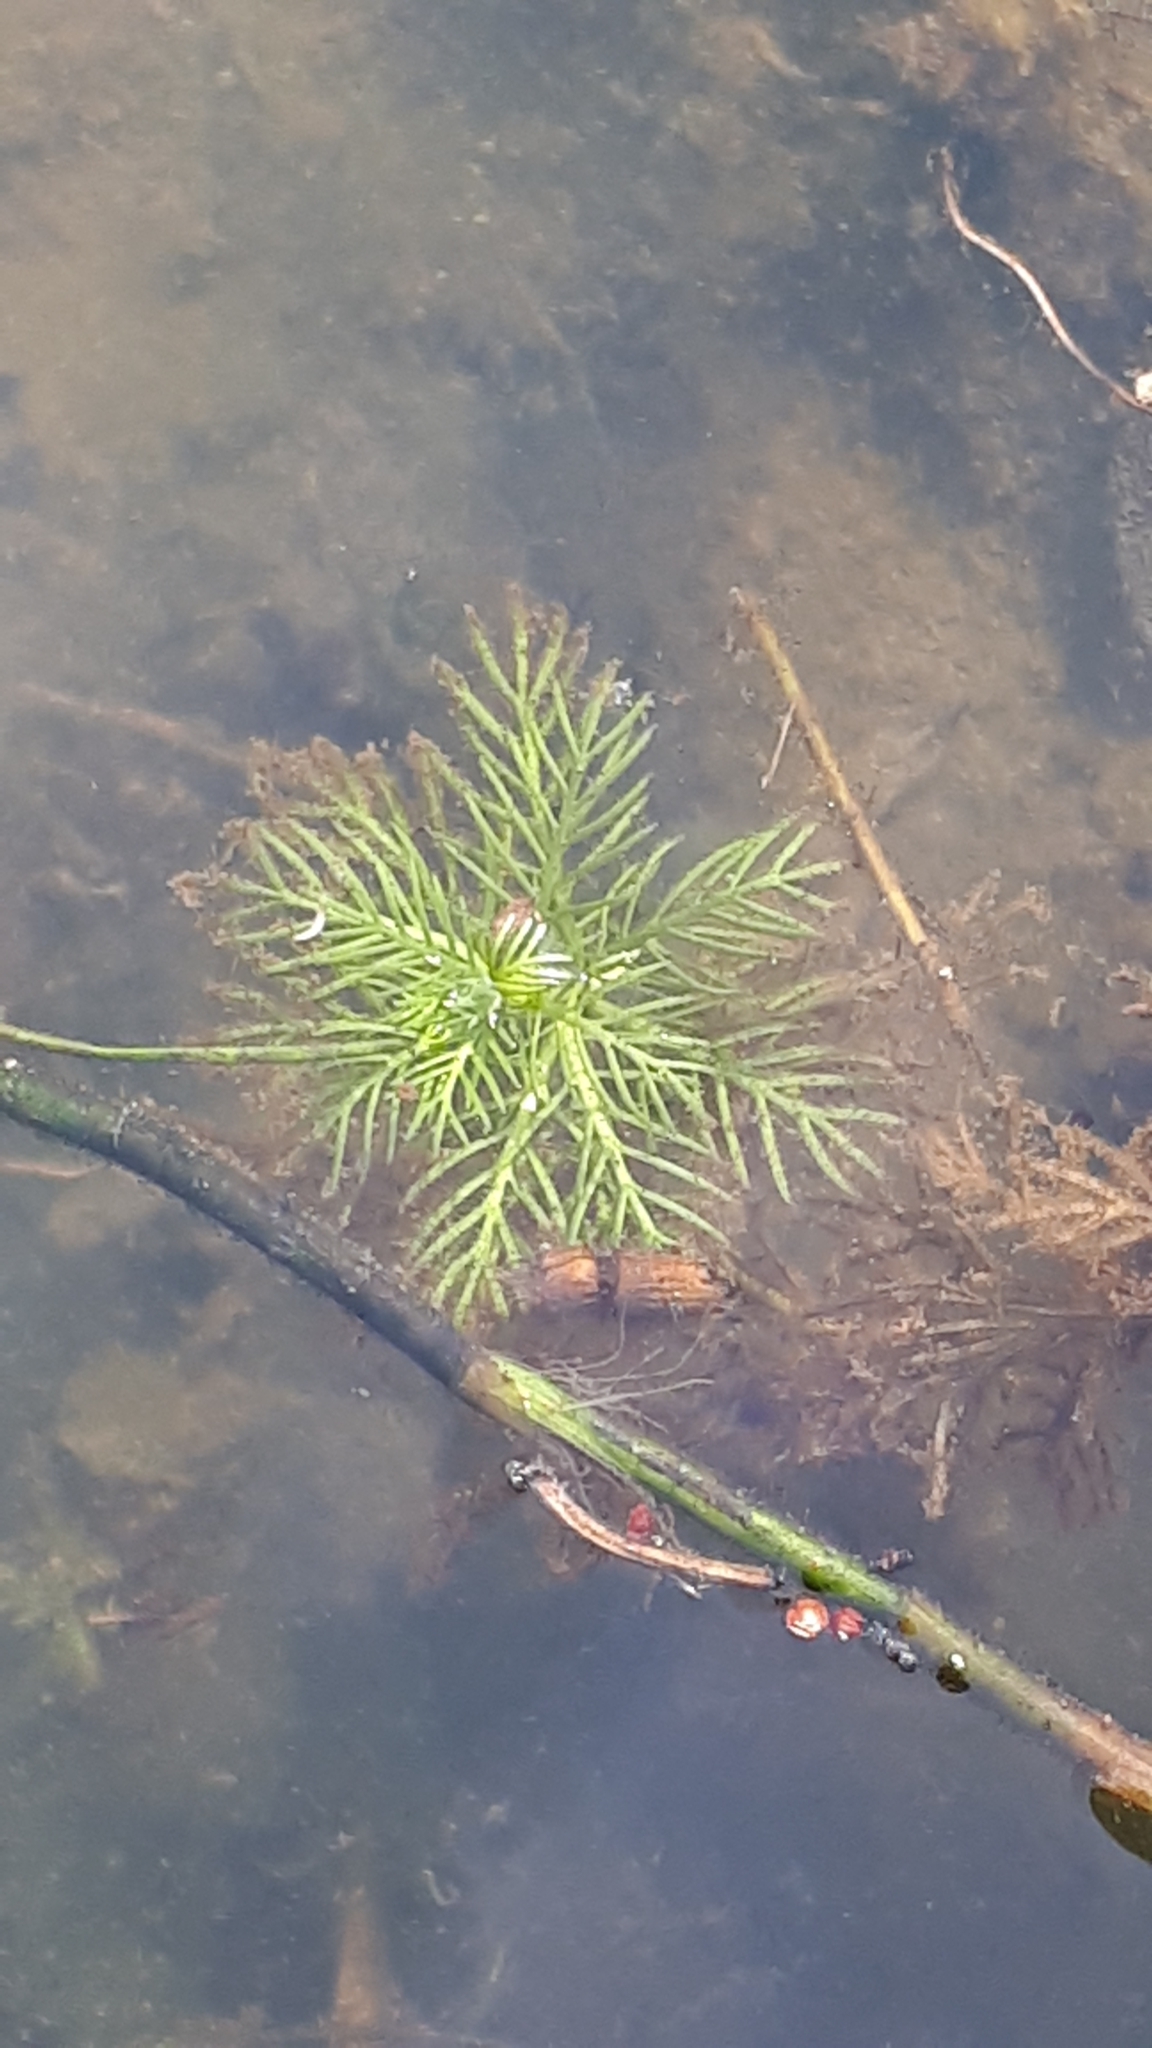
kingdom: Plantae
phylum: Tracheophyta
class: Magnoliopsida
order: Ericales
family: Primulaceae
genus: Hottonia
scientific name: Hottonia palustris
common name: Water-violet
